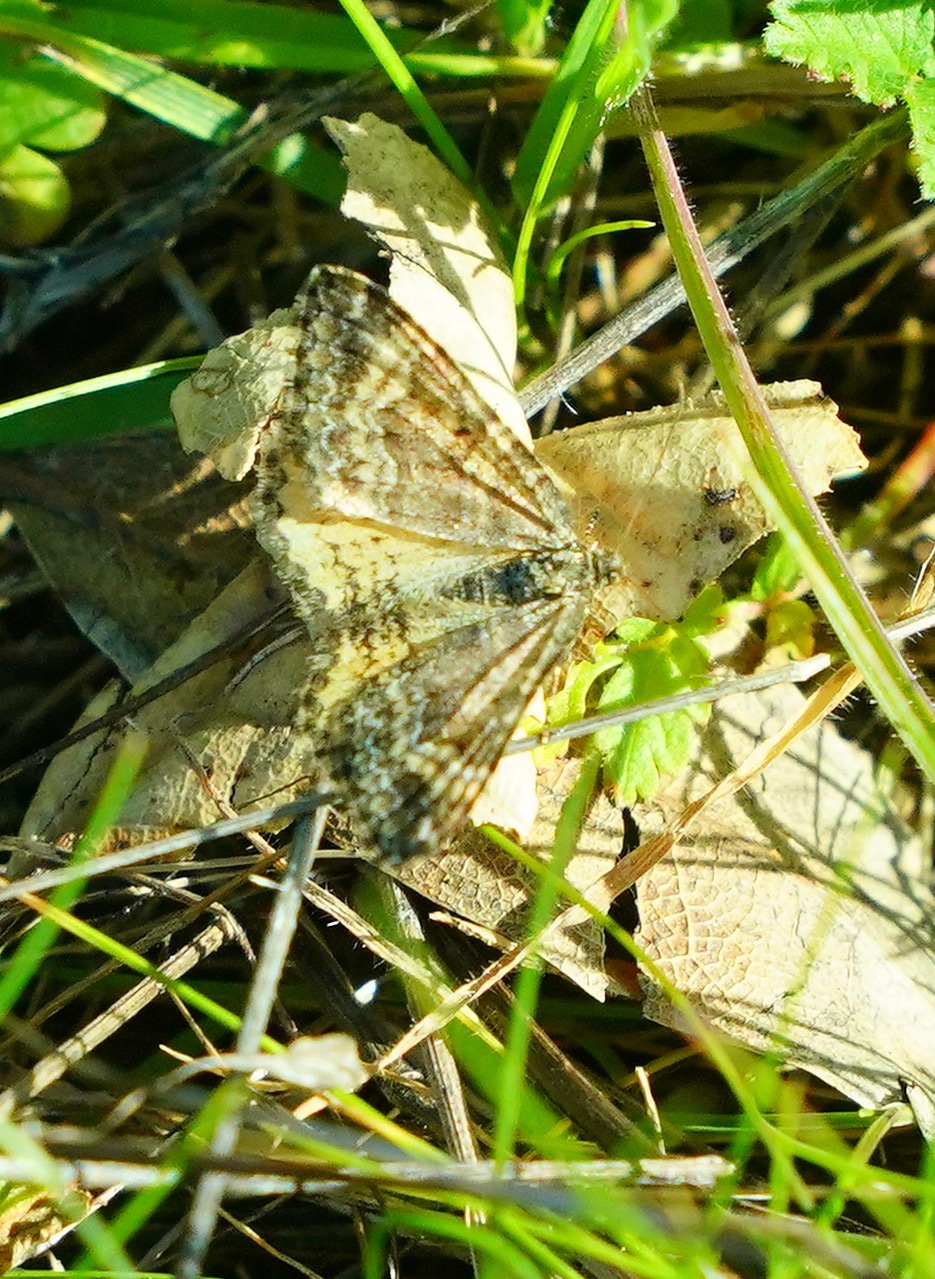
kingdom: Animalia
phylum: Arthropoda
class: Insecta
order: Lepidoptera
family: Geometridae
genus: Epirrhoe
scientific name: Epirrhoe plebeculata
